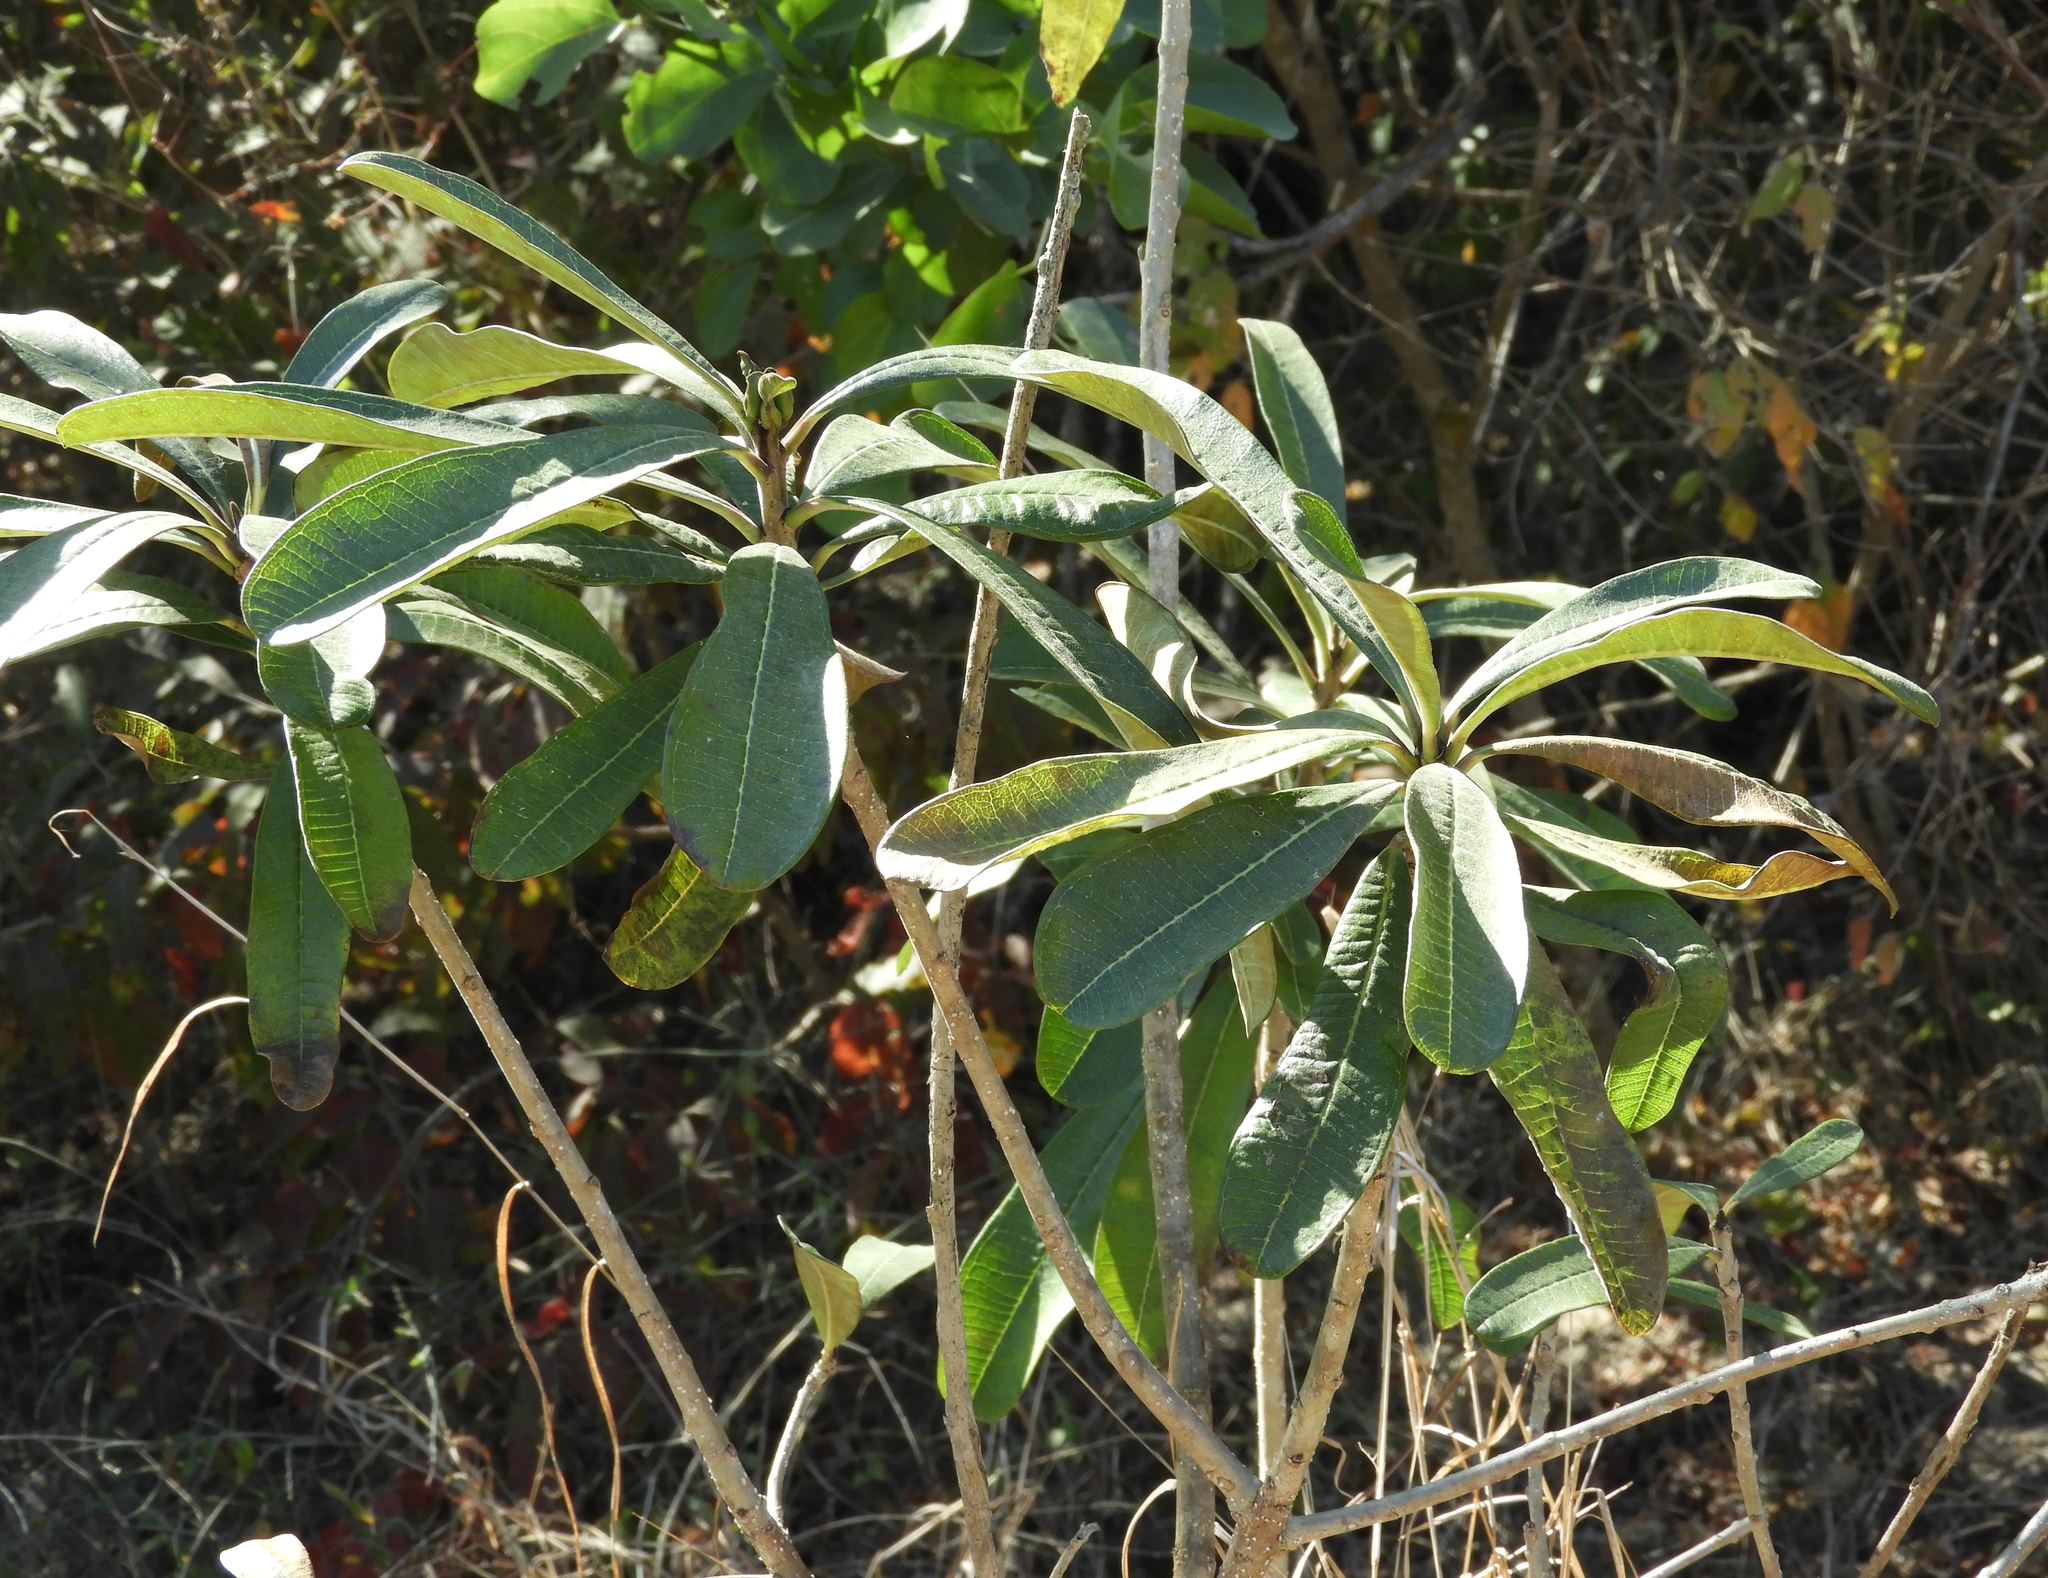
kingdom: Plantae
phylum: Tracheophyta
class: Magnoliopsida
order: Gentianales
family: Apocynaceae
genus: Cascabela
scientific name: Cascabela ovata
